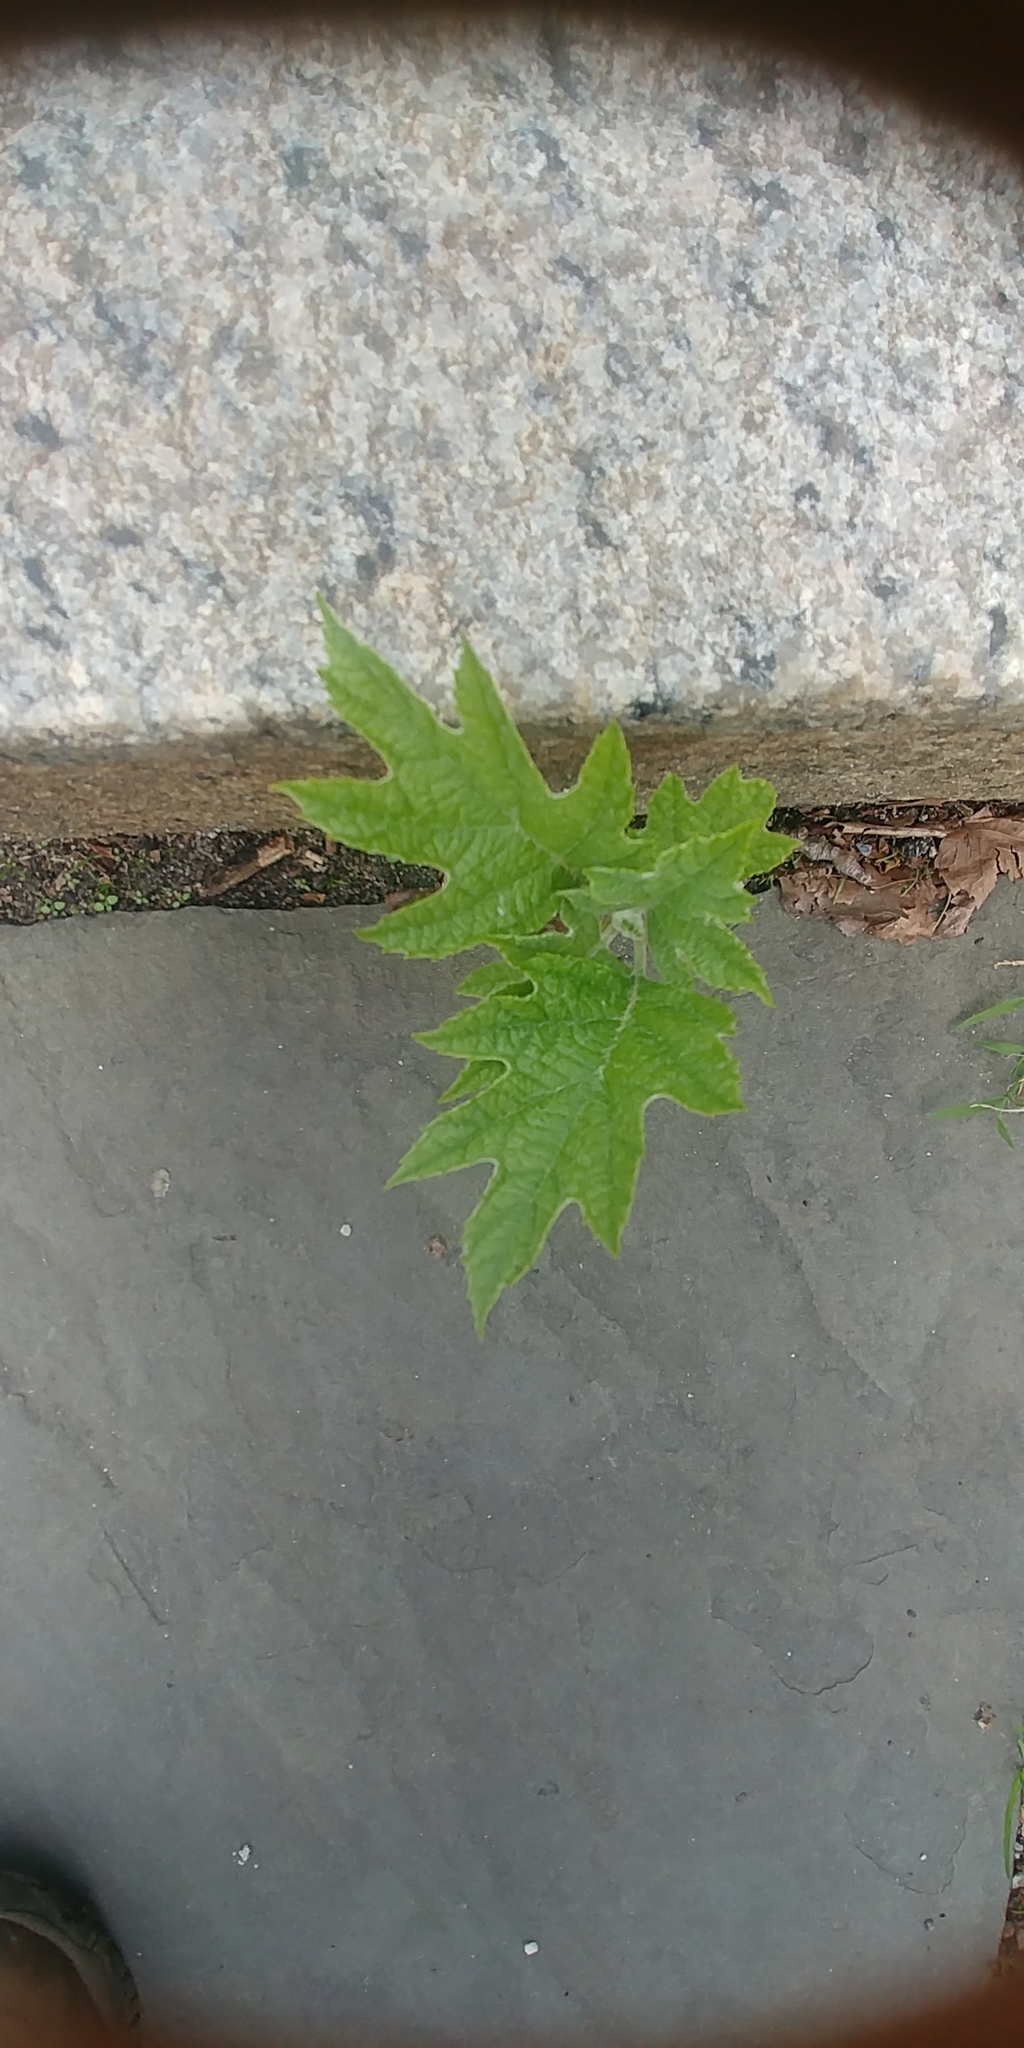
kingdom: Plantae
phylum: Tracheophyta
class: Magnoliopsida
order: Cornales
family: Hydrangeaceae
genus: Hydrangea
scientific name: Hydrangea quercifolia
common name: Oak-leaf hydrangea
